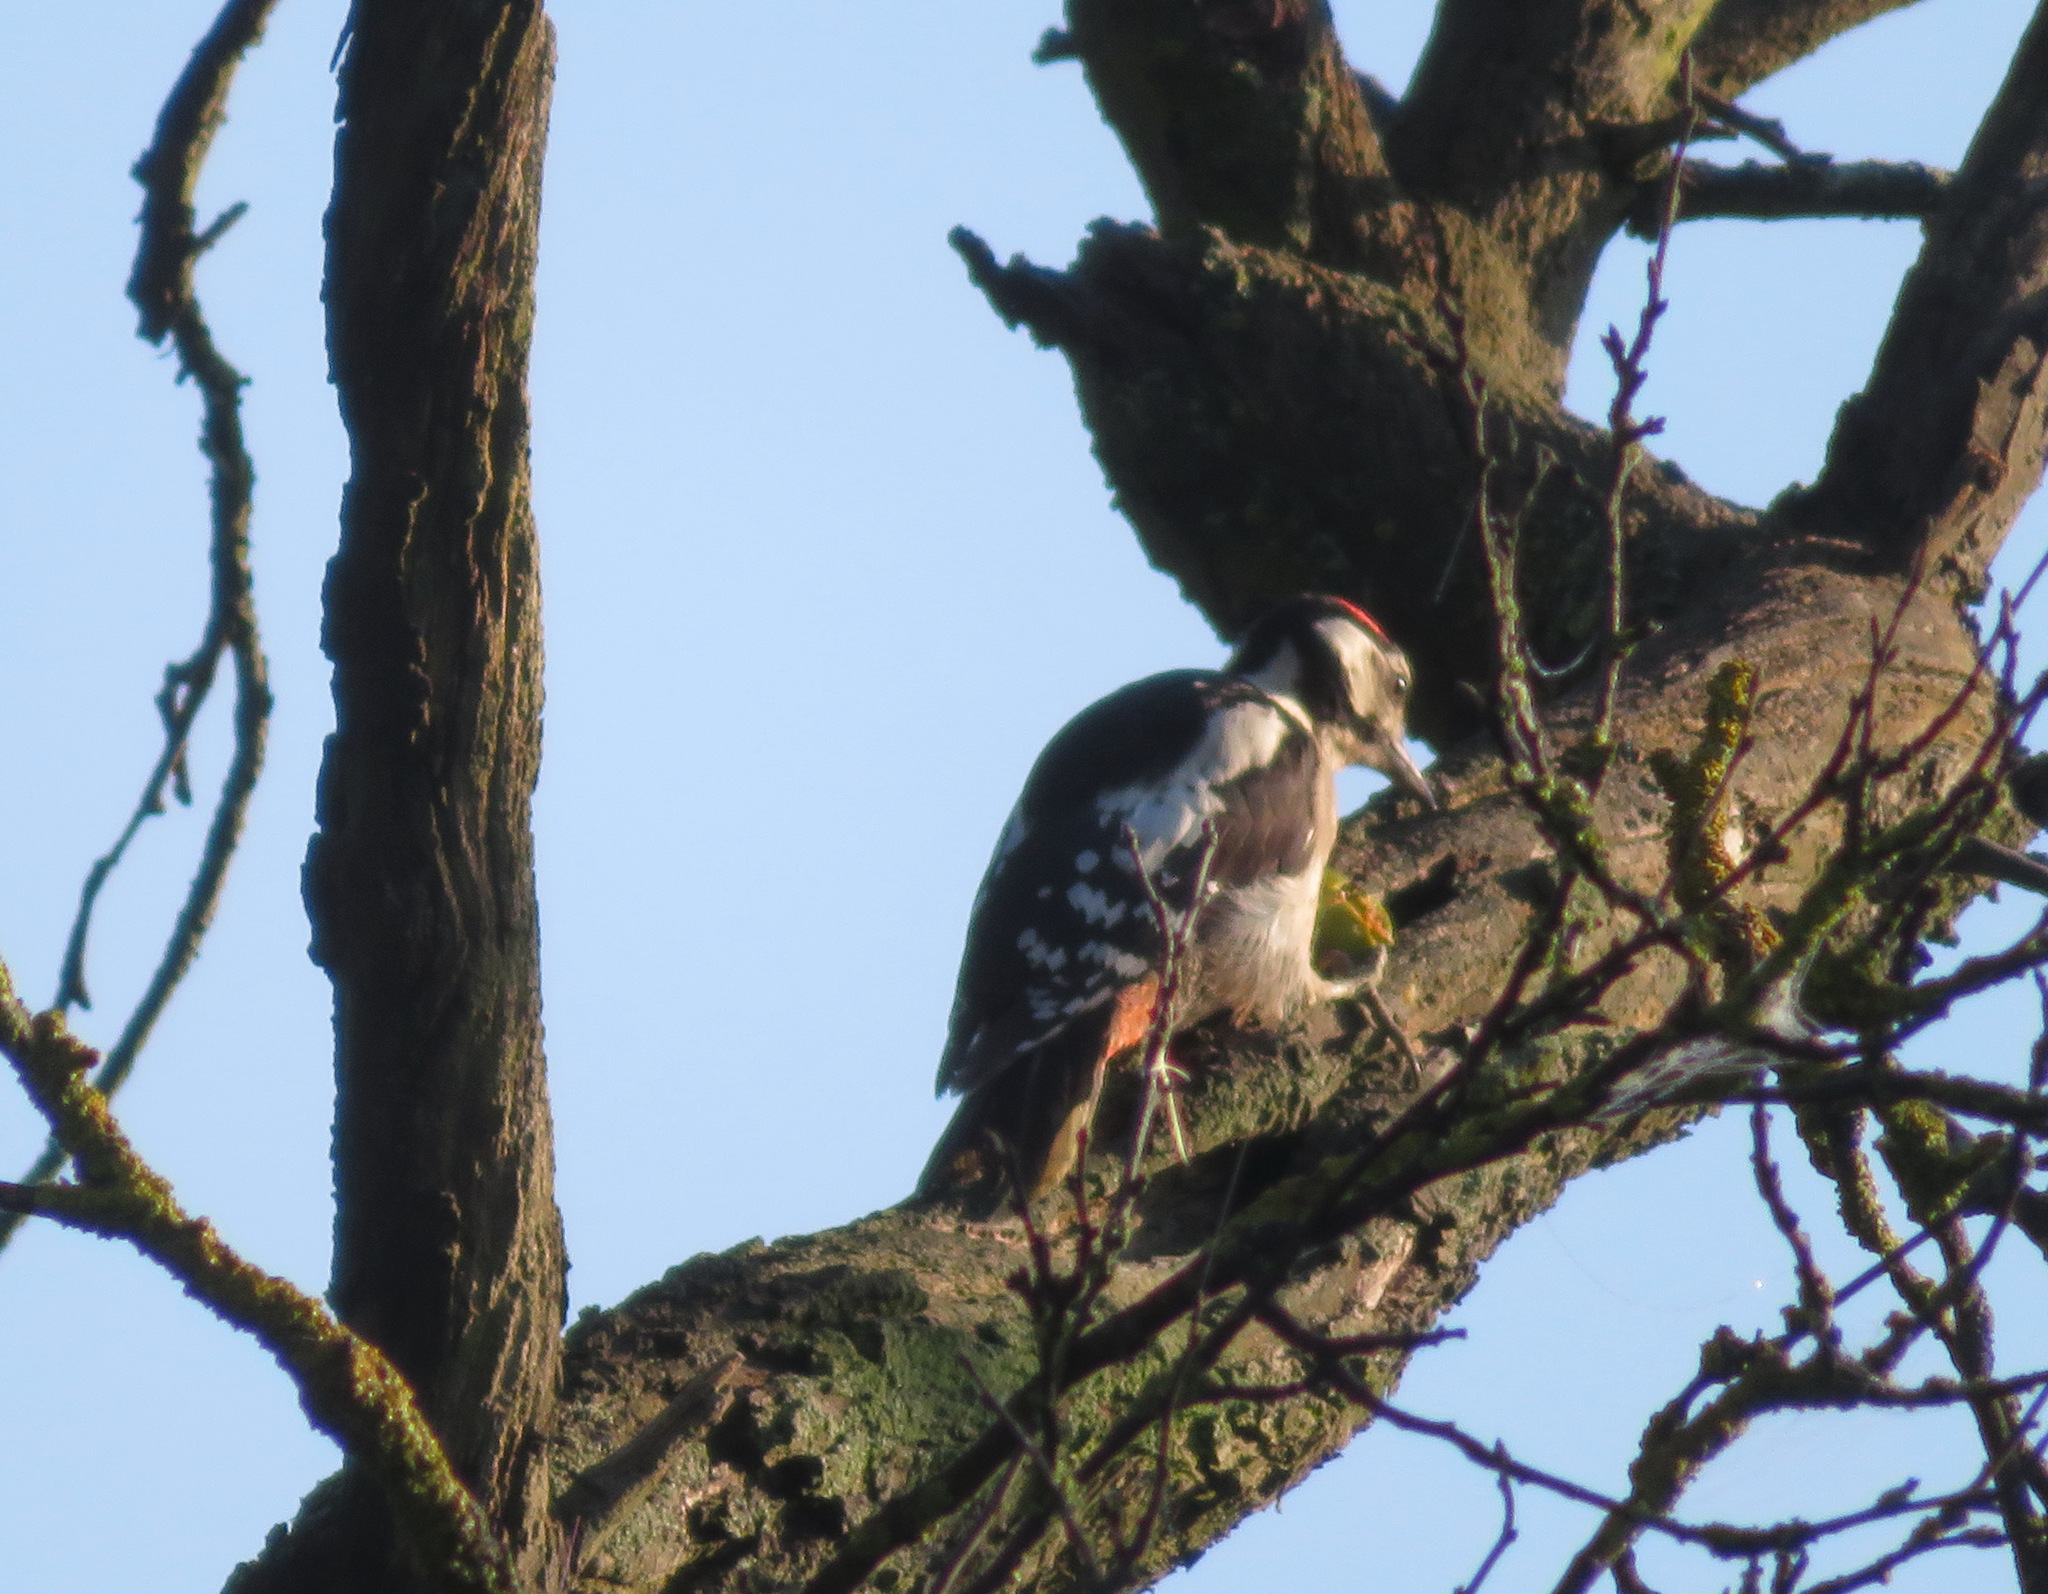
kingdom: Animalia
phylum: Chordata
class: Aves
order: Piciformes
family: Picidae
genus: Dendrocopos
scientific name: Dendrocopos major
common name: Great spotted woodpecker
